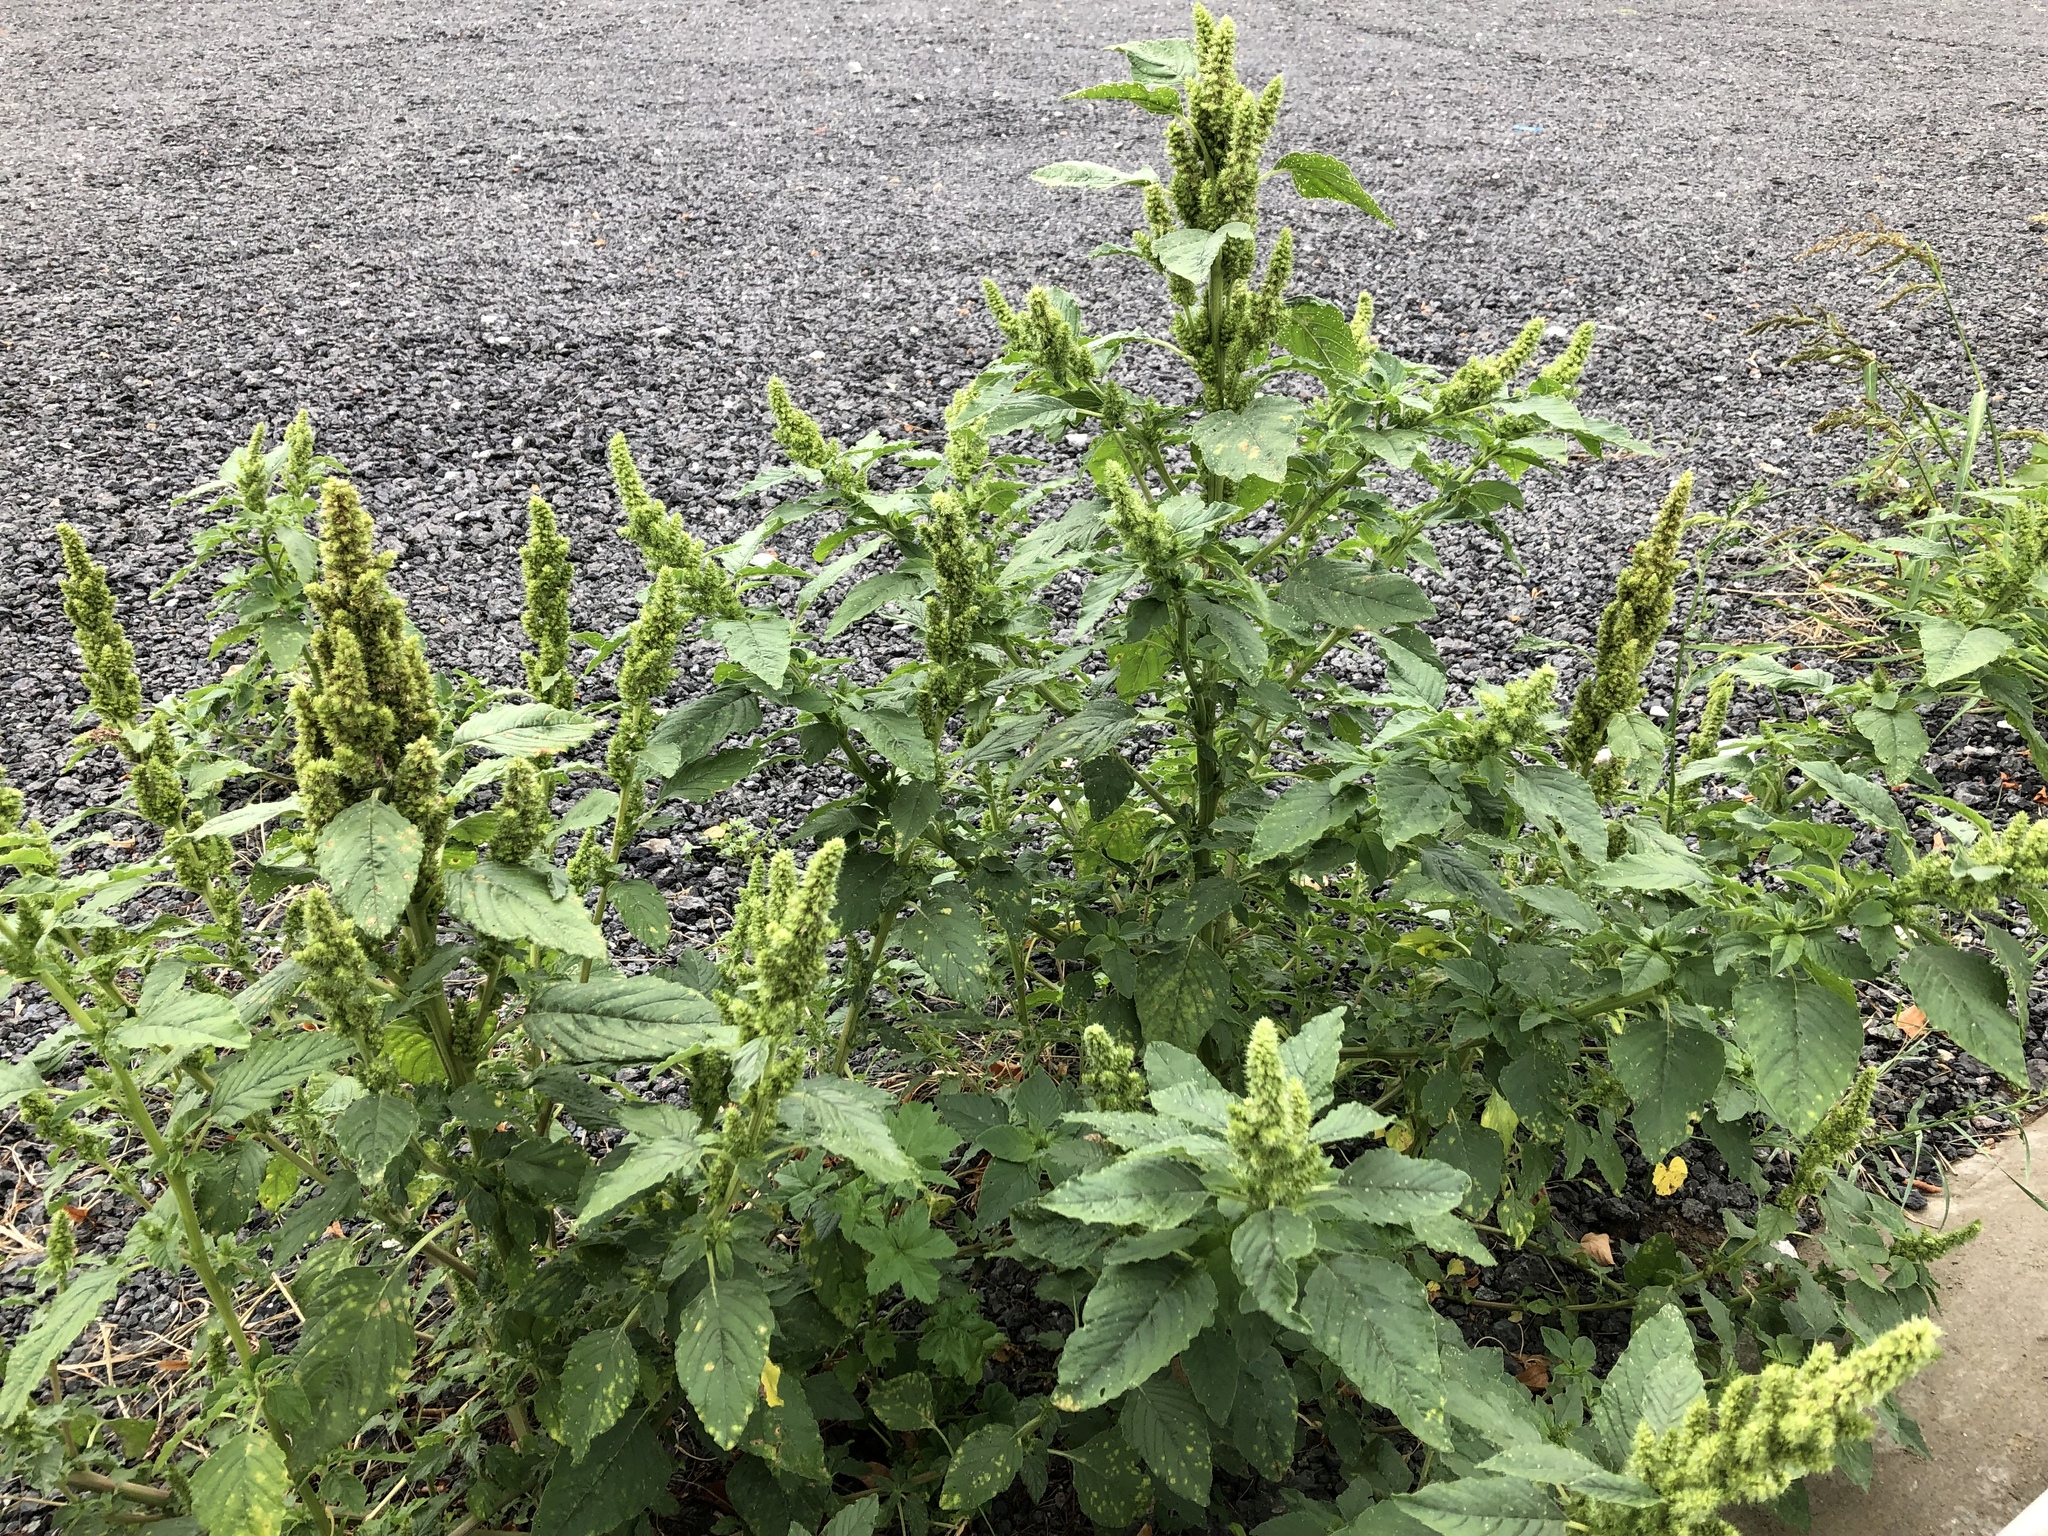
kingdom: Plantae
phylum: Tracheophyta
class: Magnoliopsida
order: Caryophyllales
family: Amaranthaceae
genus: Amaranthus
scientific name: Amaranthus retroflexus
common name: Redroot amaranth
